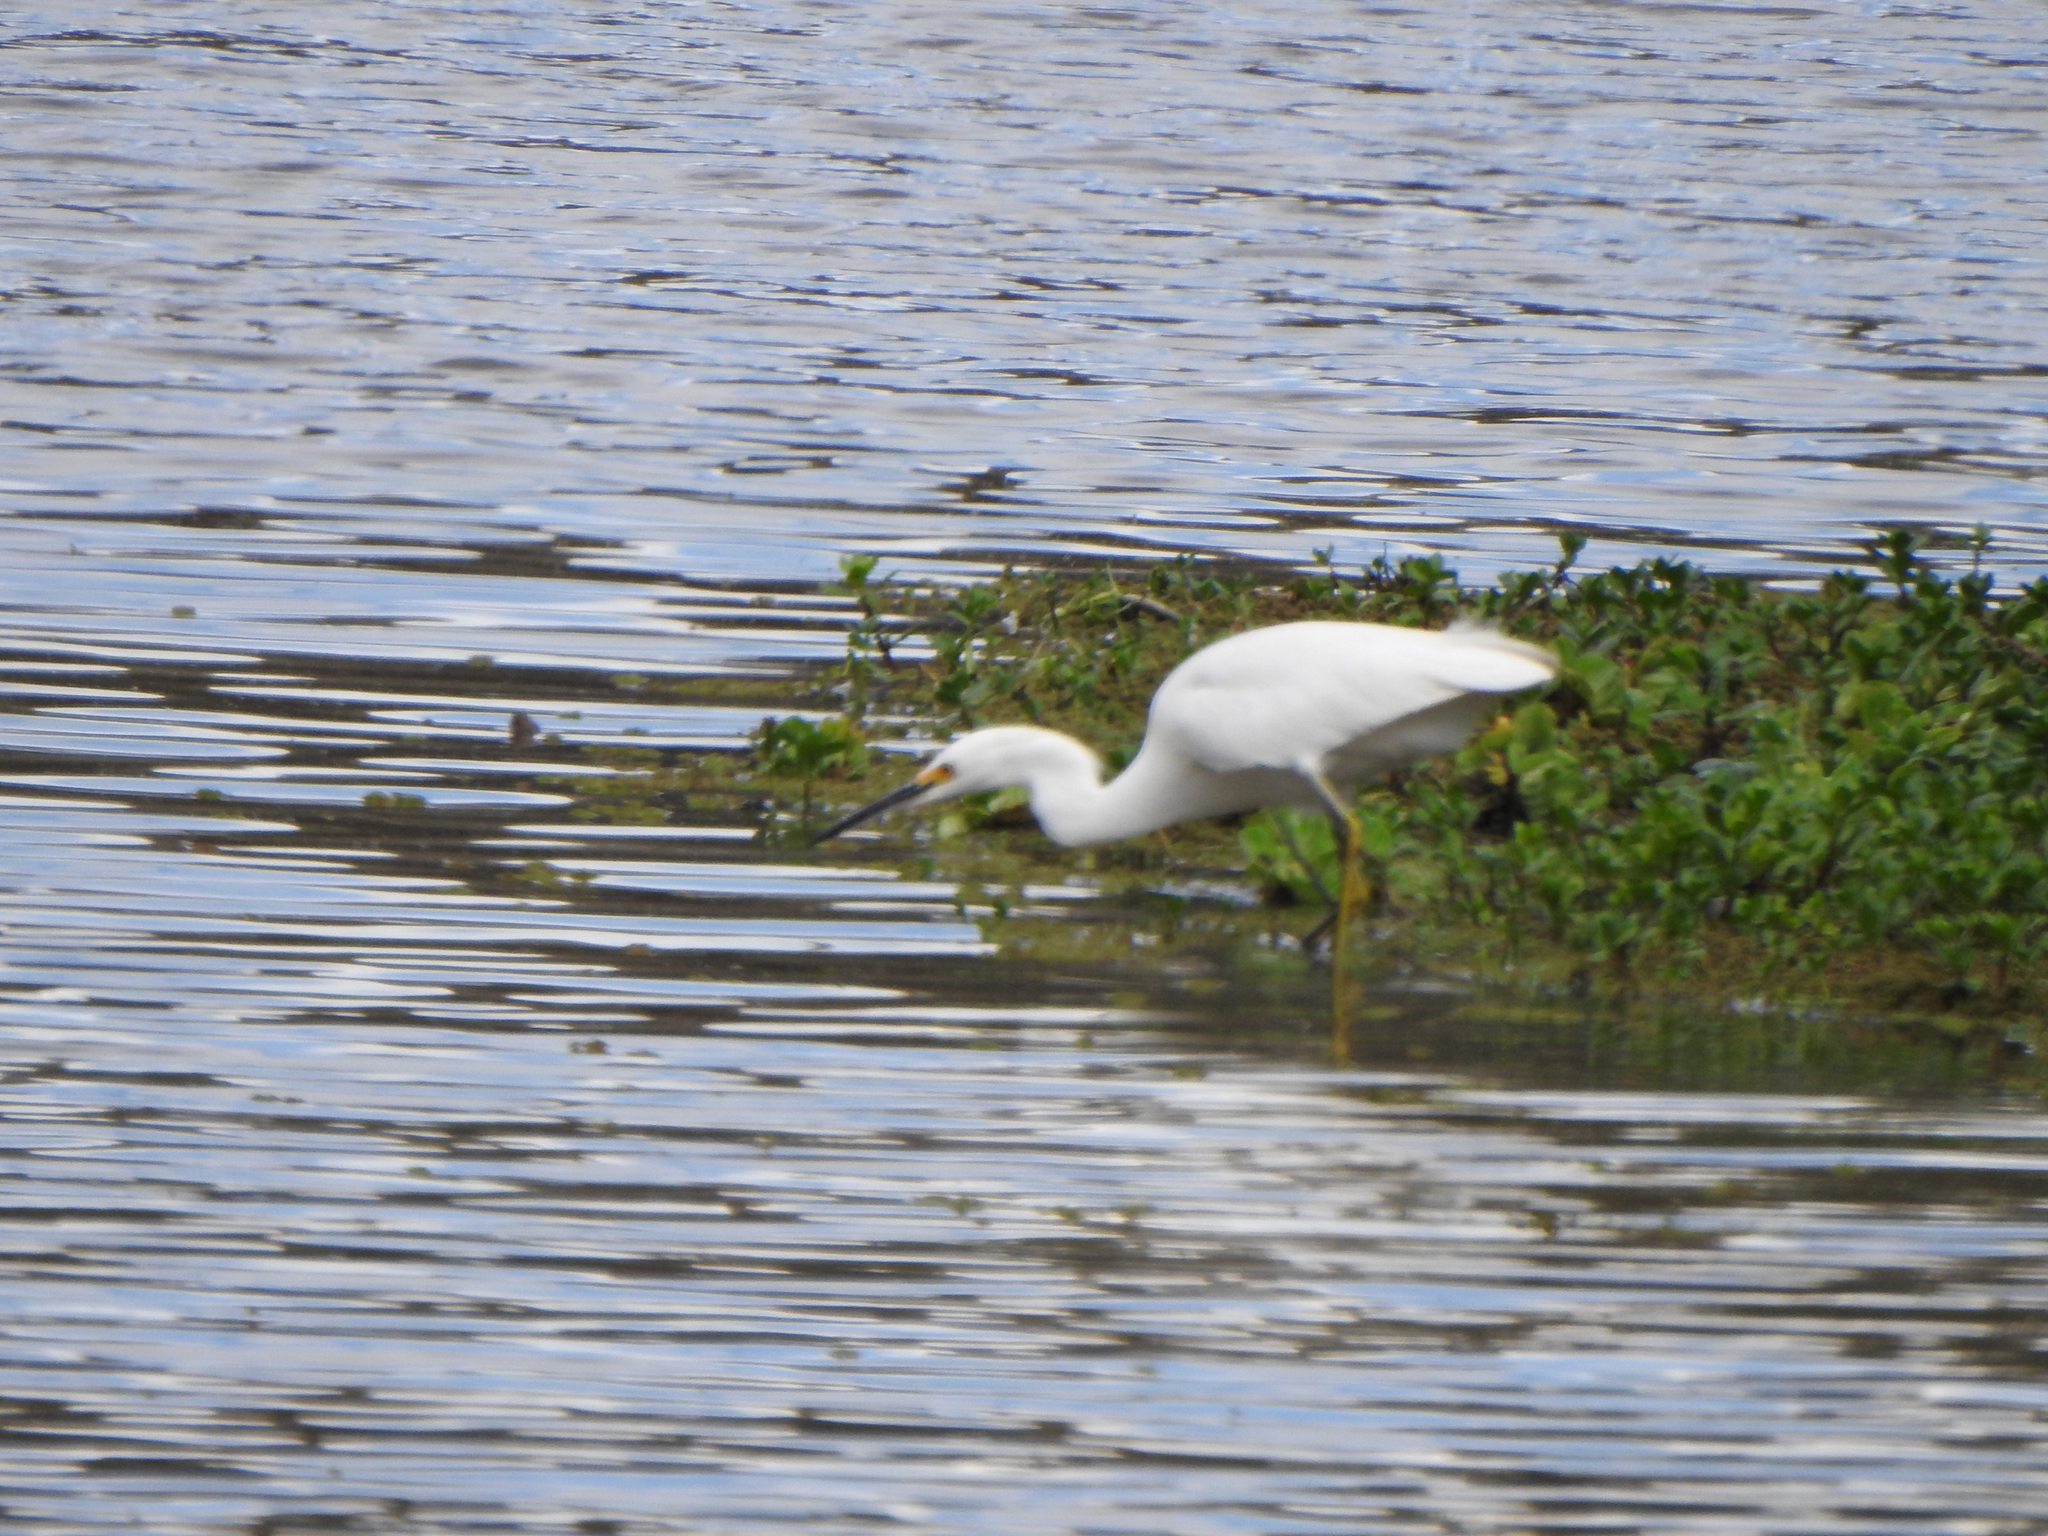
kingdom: Animalia
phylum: Chordata
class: Aves
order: Pelecaniformes
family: Ardeidae
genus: Egretta
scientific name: Egretta thula
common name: Snowy egret
